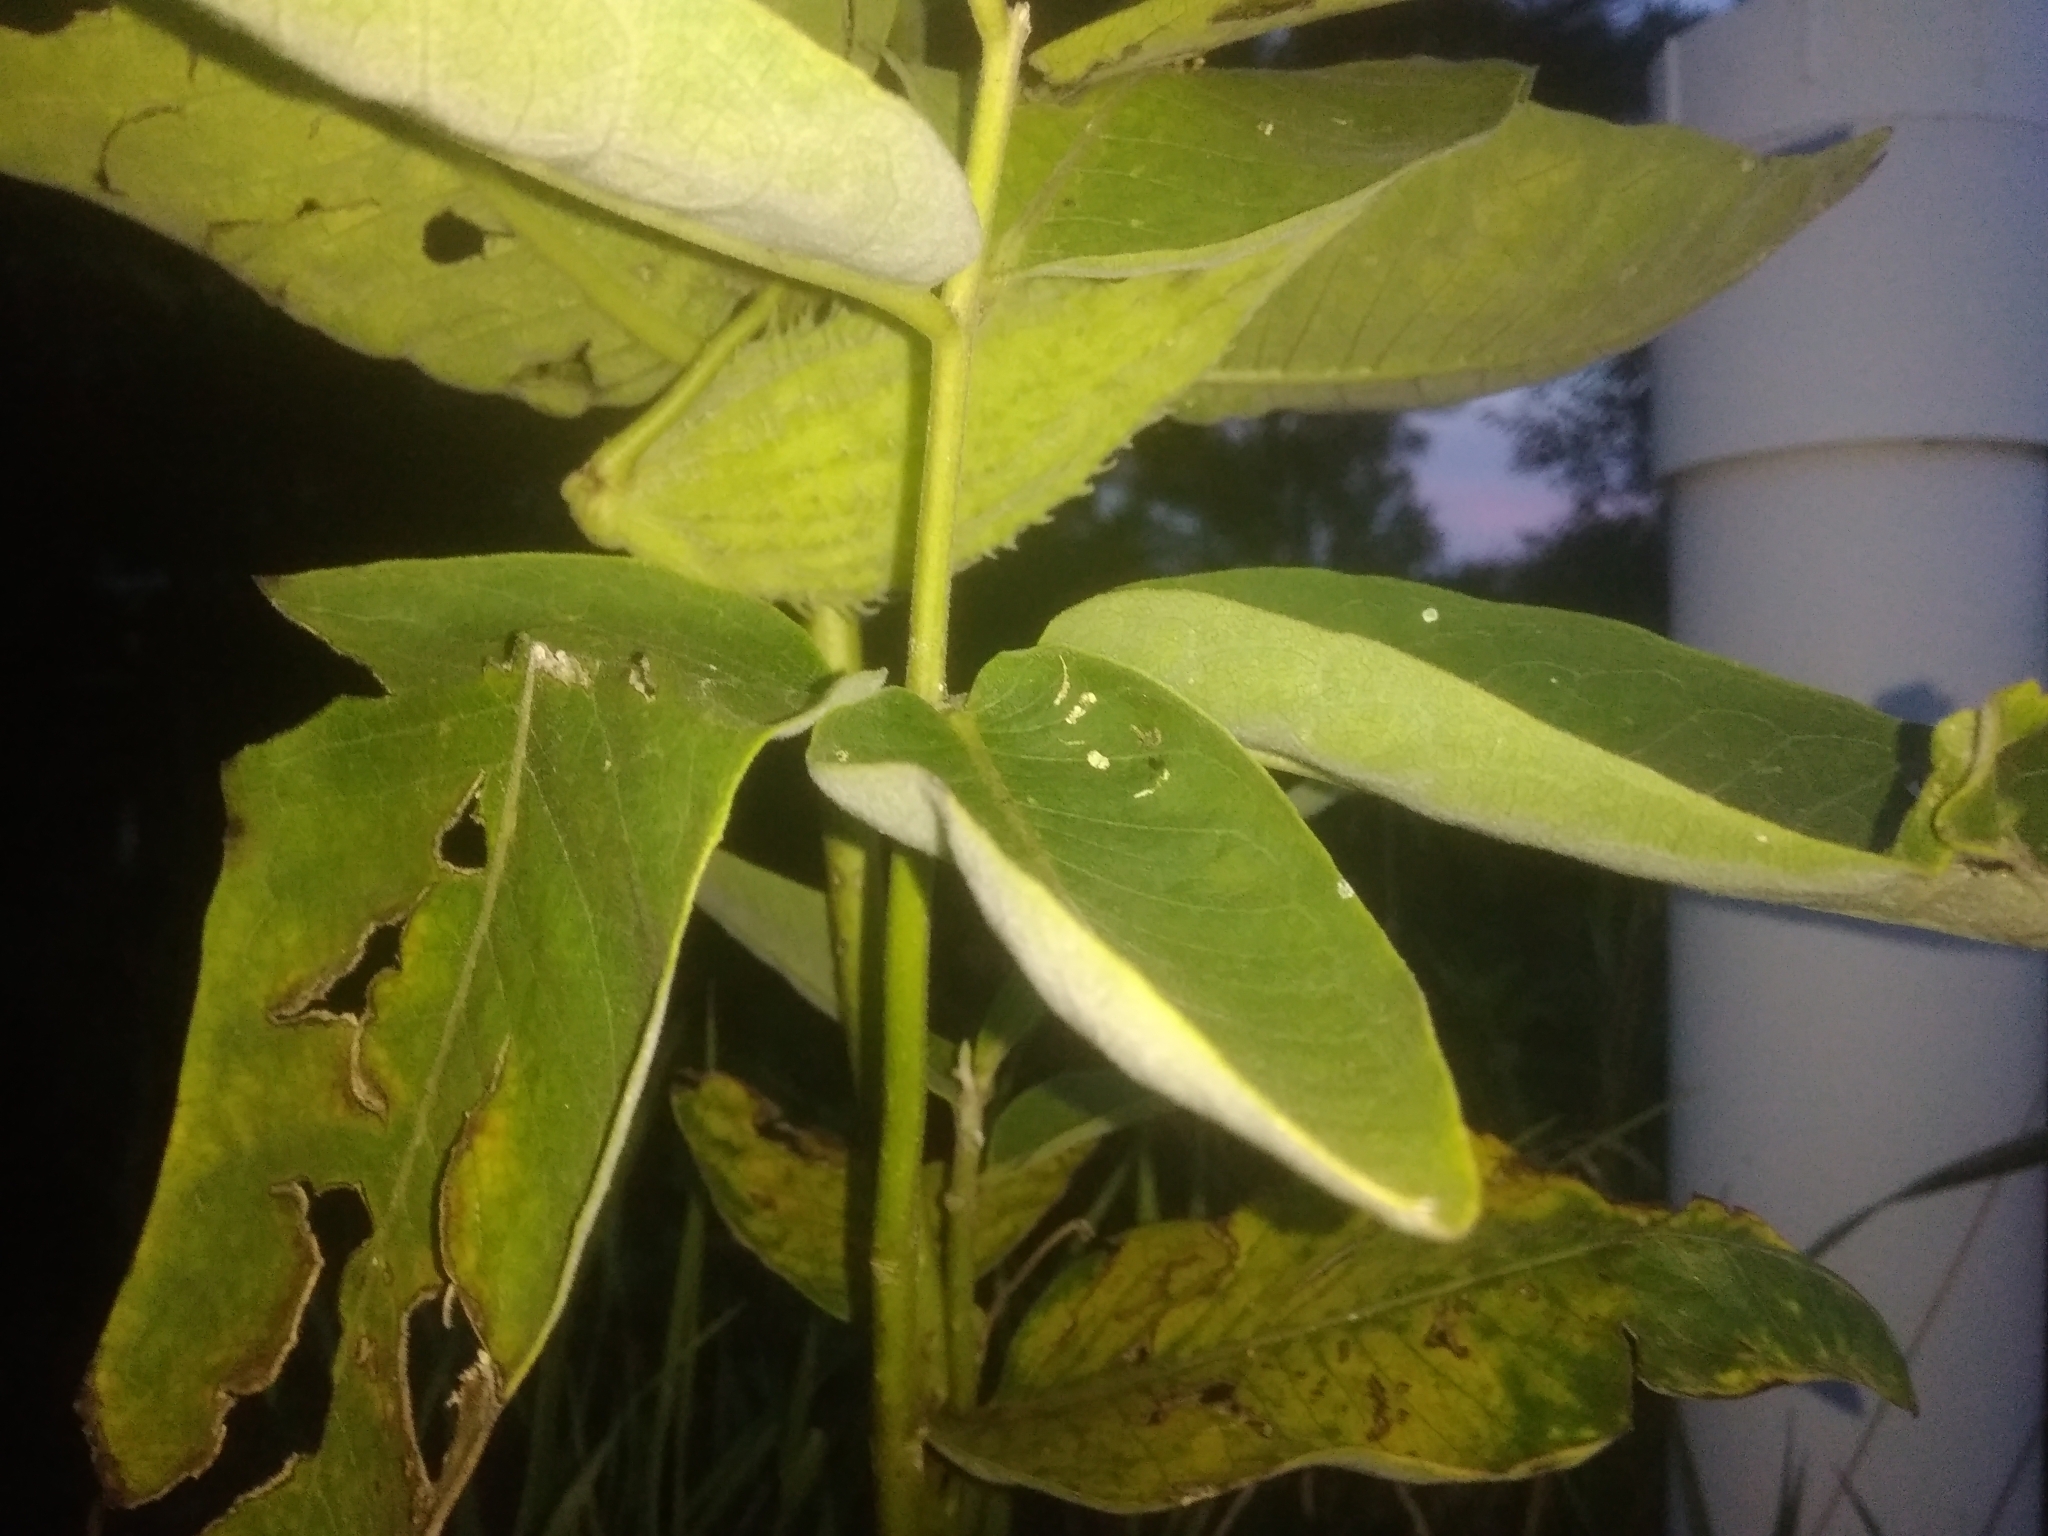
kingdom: Plantae
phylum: Tracheophyta
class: Magnoliopsida
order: Gentianales
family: Apocynaceae
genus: Asclepias
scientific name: Asclepias syriaca
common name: Common milkweed
